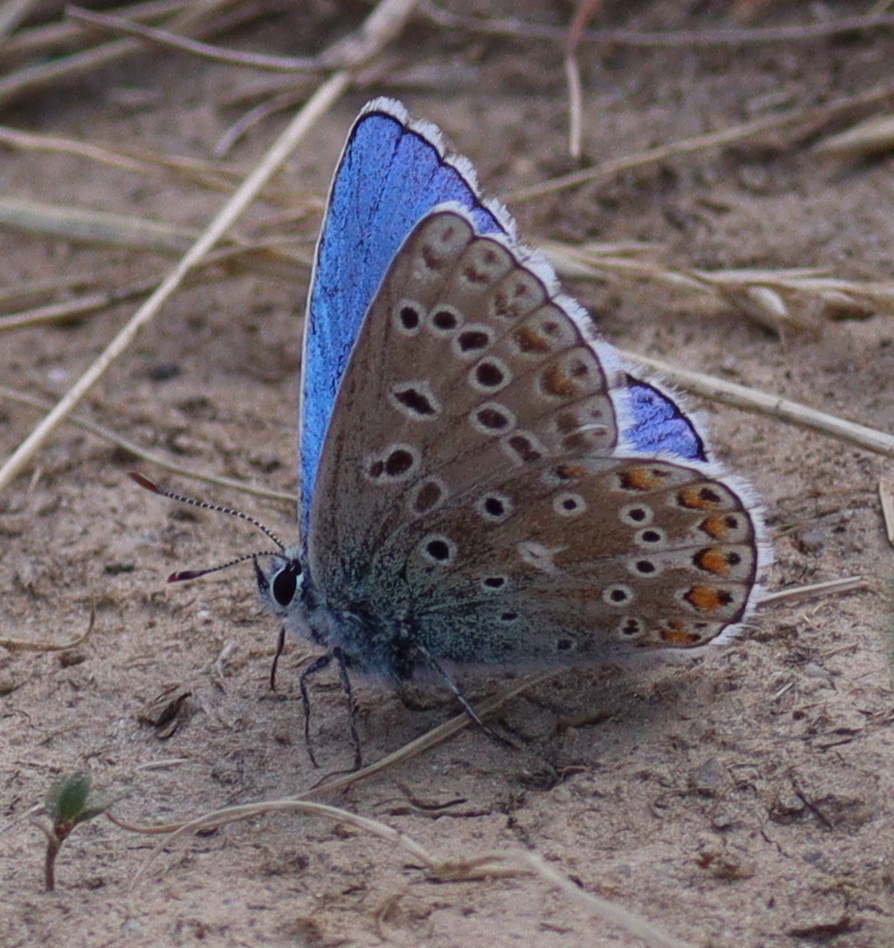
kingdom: Animalia
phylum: Arthropoda
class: Insecta
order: Lepidoptera
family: Lycaenidae
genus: Lysandra
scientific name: Lysandra bellargus
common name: Adonis blue
